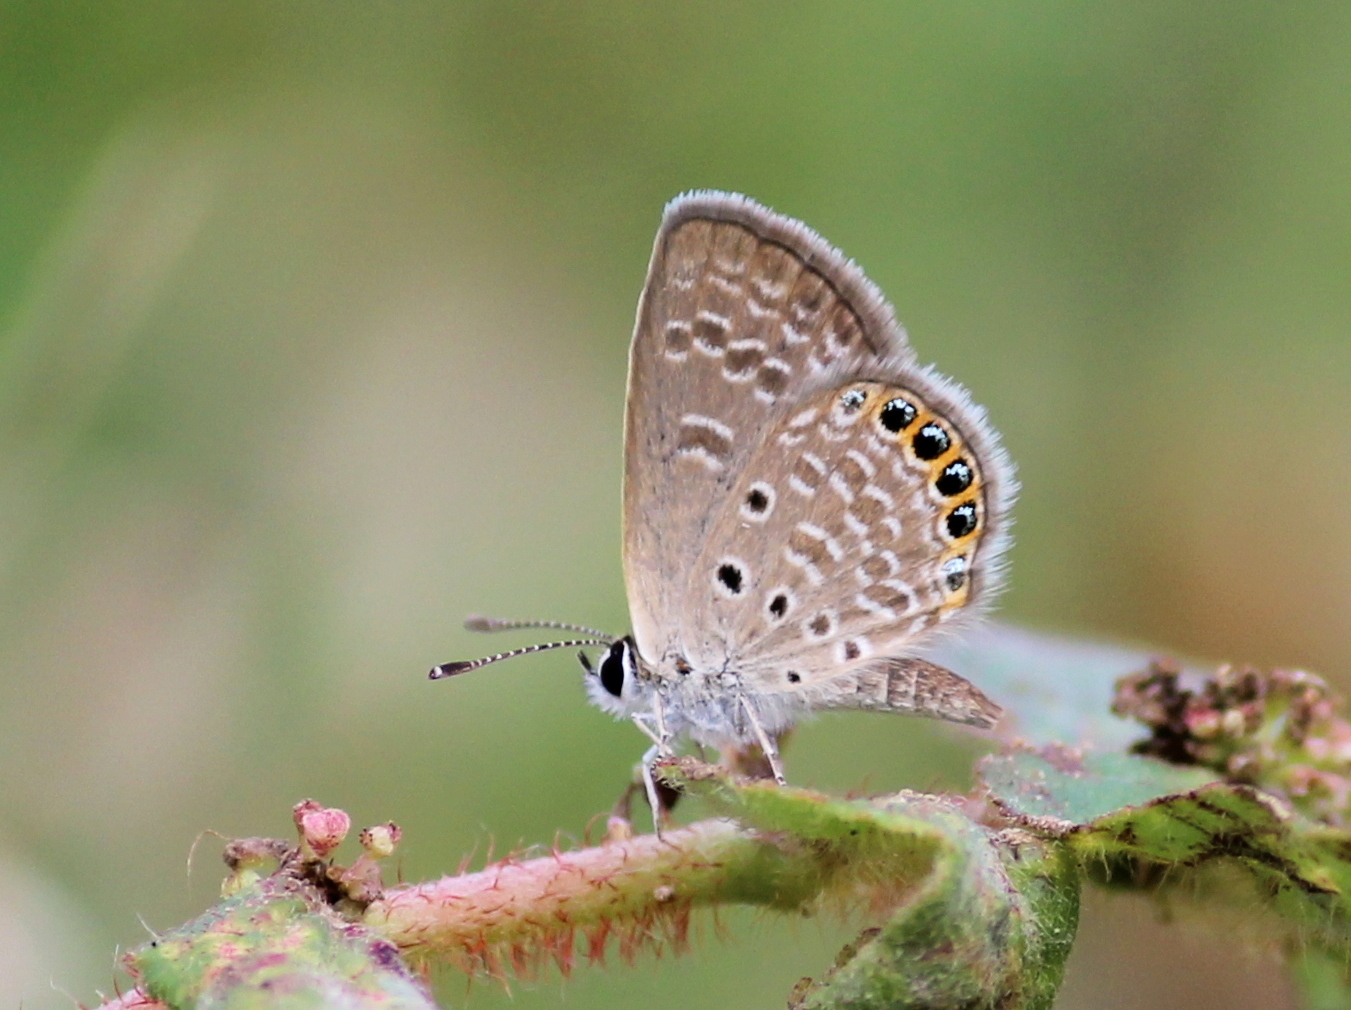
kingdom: Animalia
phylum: Arthropoda
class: Insecta
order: Lepidoptera
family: Lycaenidae
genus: Freyeria
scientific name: Freyeria putli
